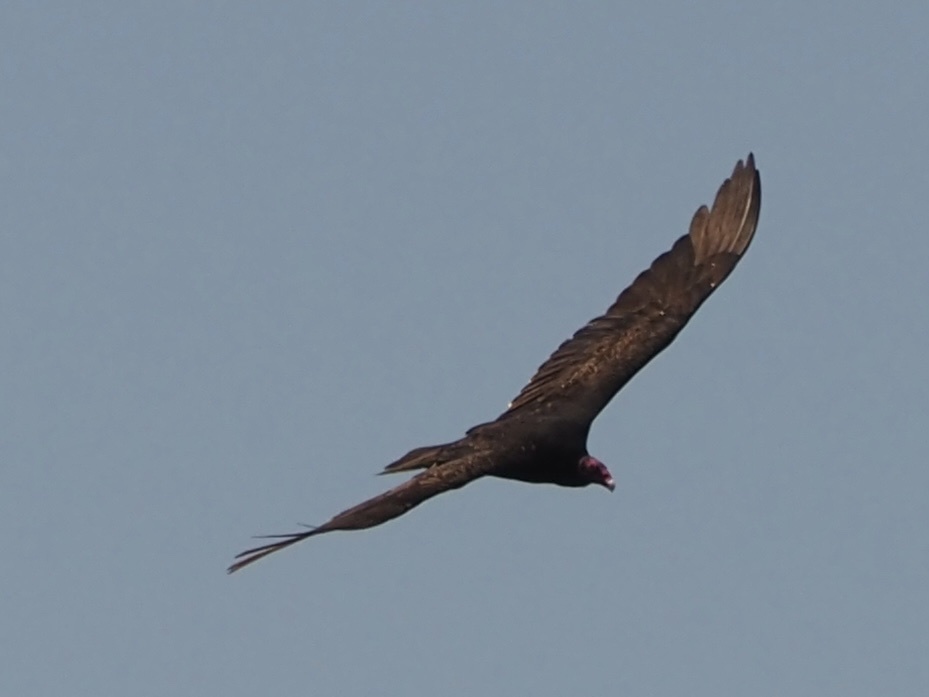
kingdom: Animalia
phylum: Chordata
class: Aves
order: Accipitriformes
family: Cathartidae
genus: Cathartes
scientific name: Cathartes aura
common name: Turkey vulture
